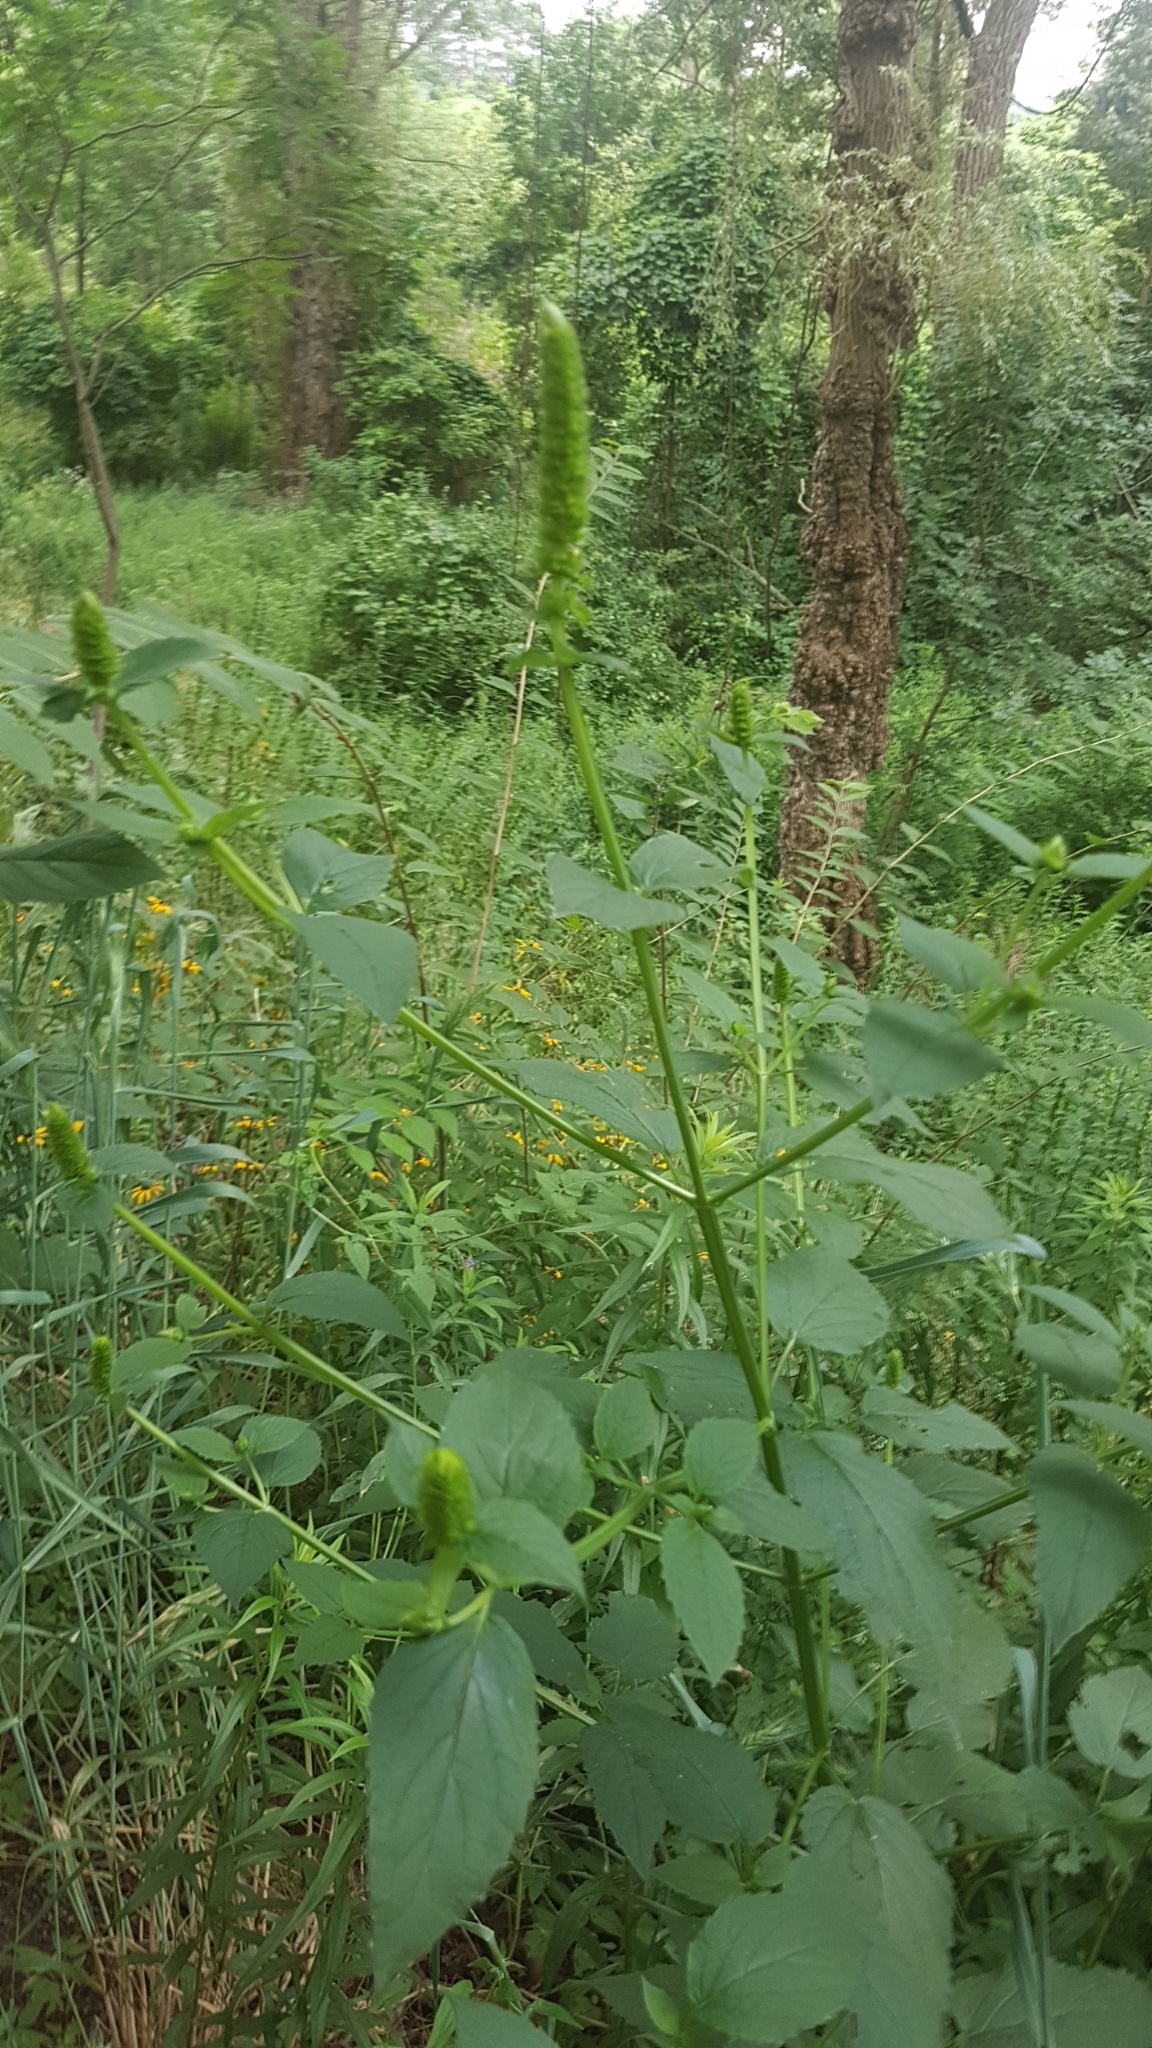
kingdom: Plantae
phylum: Tracheophyta
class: Magnoliopsida
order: Lamiales
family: Lamiaceae
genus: Agastache
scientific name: Agastache nepetoides
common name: Catnip giant hyssop
